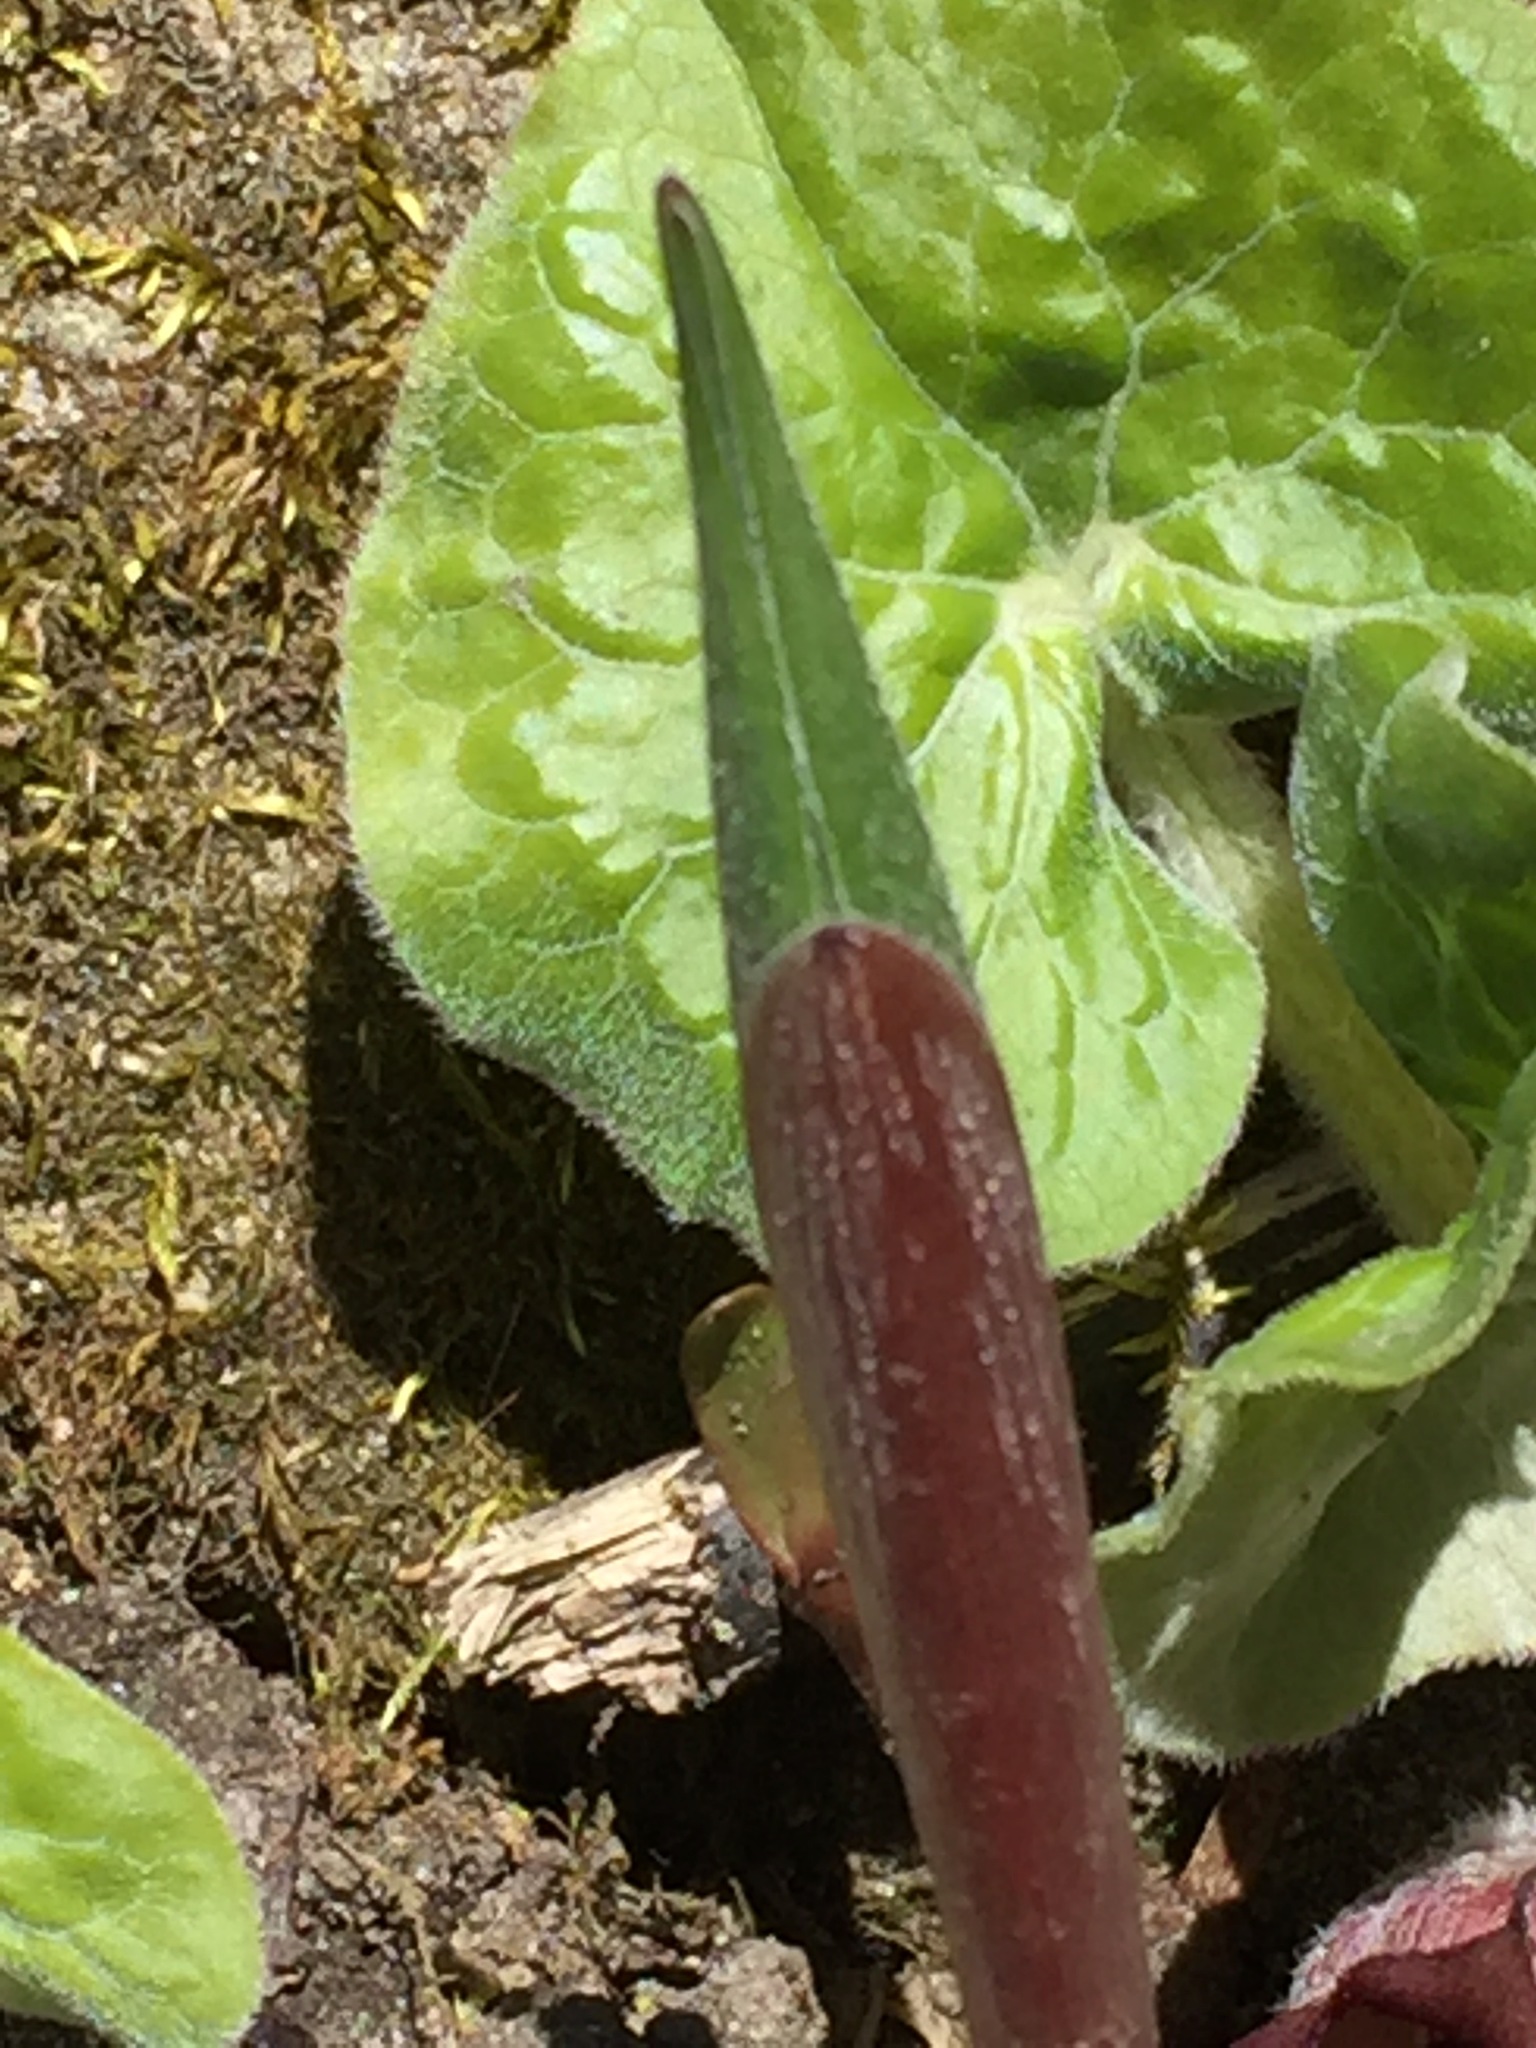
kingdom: Plantae
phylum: Tracheophyta
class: Magnoliopsida
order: Piperales
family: Aristolochiaceae
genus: Asarum
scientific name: Asarum canadense
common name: Wild ginger
